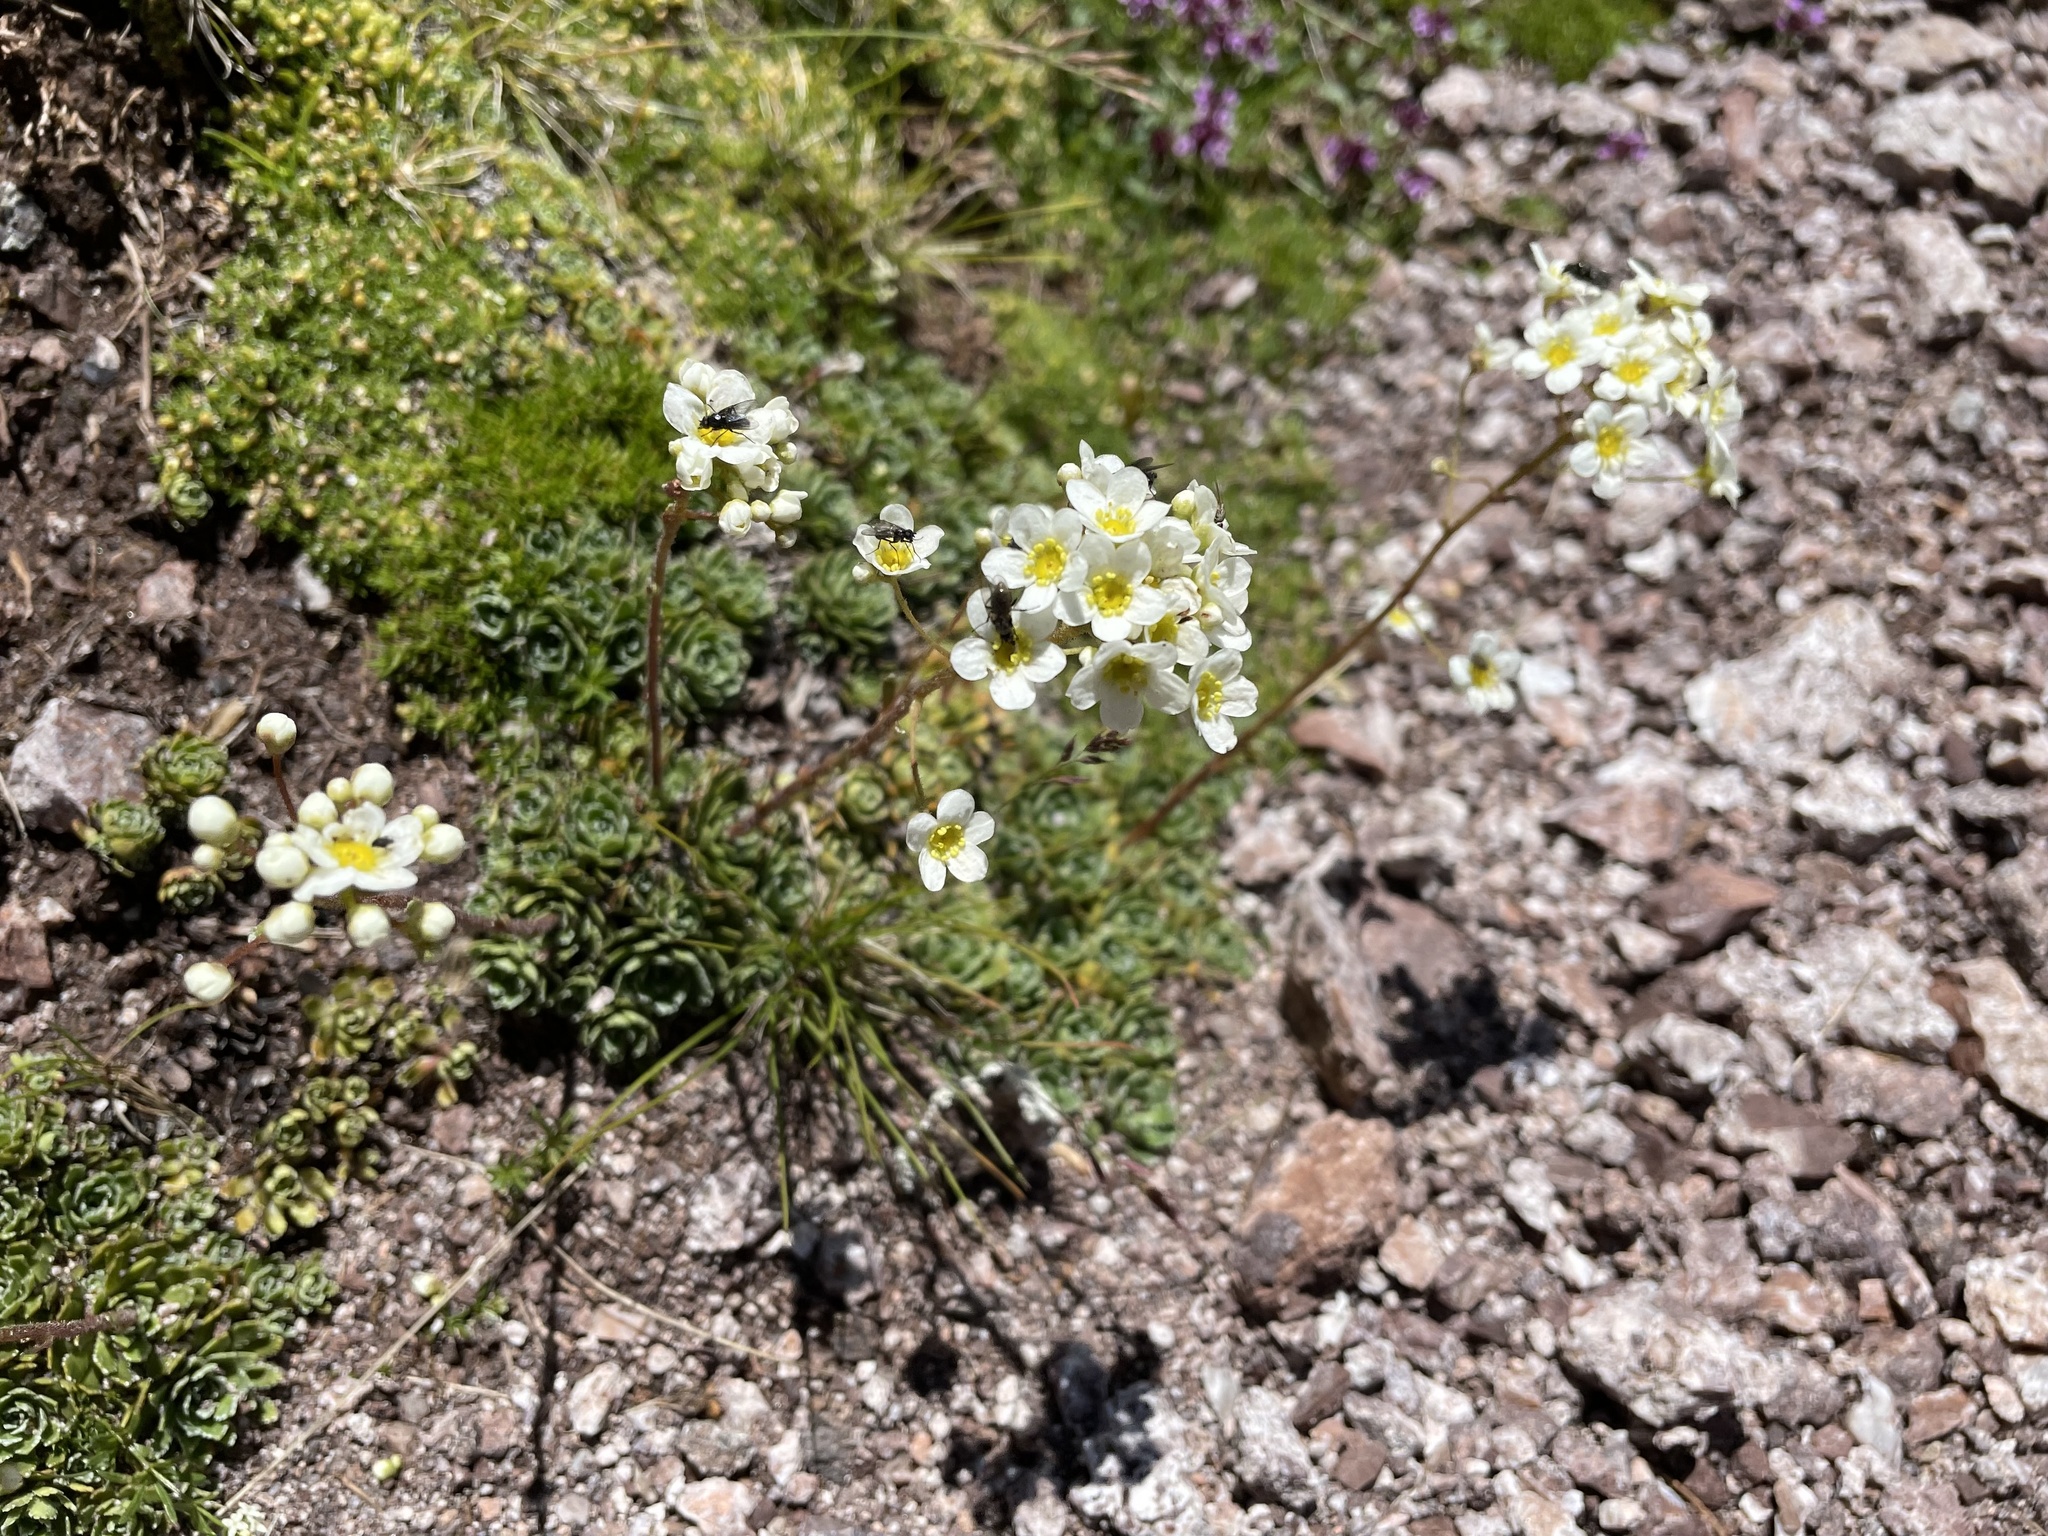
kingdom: Plantae
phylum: Tracheophyta
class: Magnoliopsida
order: Saxifragales
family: Saxifragaceae
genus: Saxifraga
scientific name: Saxifraga paniculata
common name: Livelong saxifrage
